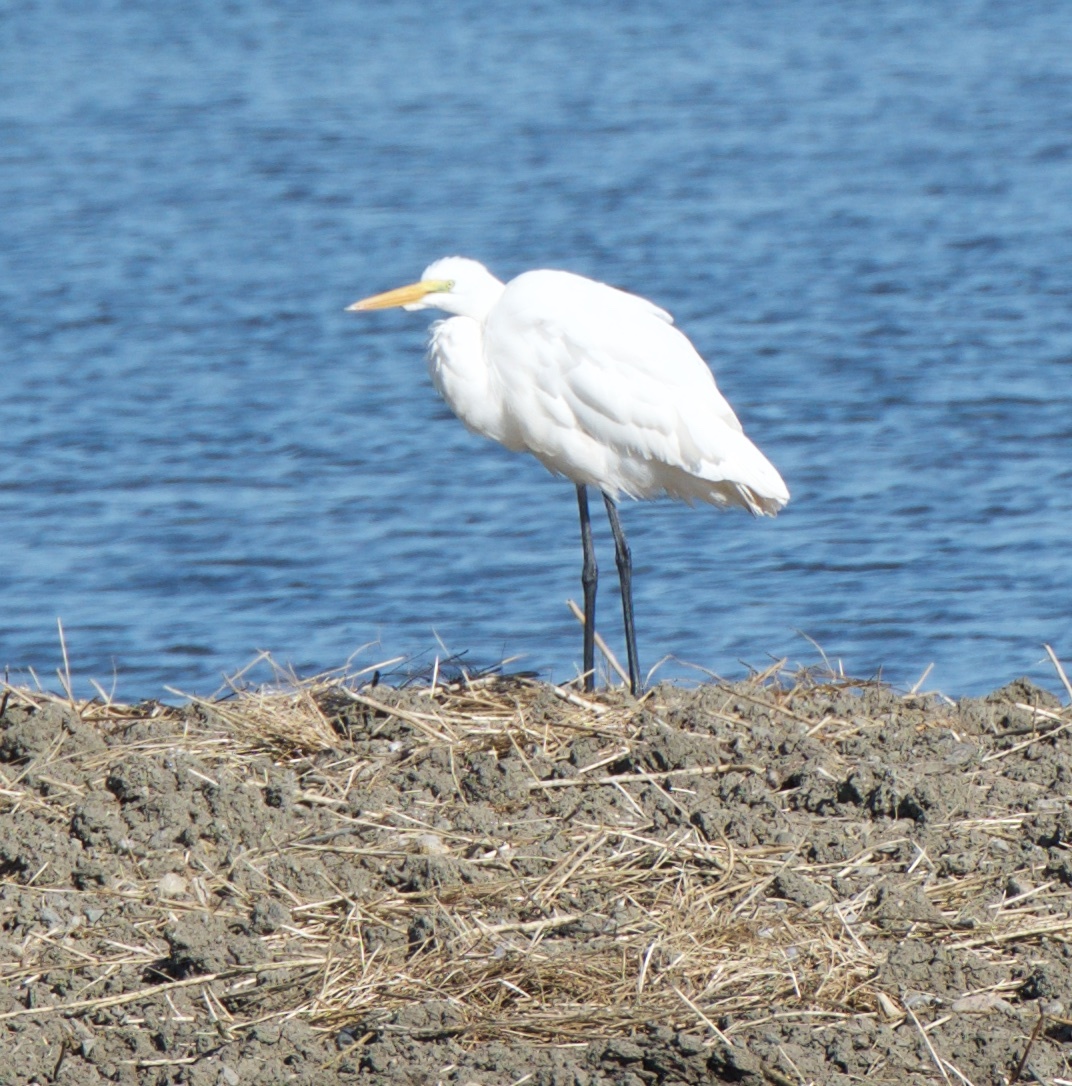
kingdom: Animalia
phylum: Chordata
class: Aves
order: Pelecaniformes
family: Ardeidae
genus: Ardea
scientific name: Ardea alba
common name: Great egret
